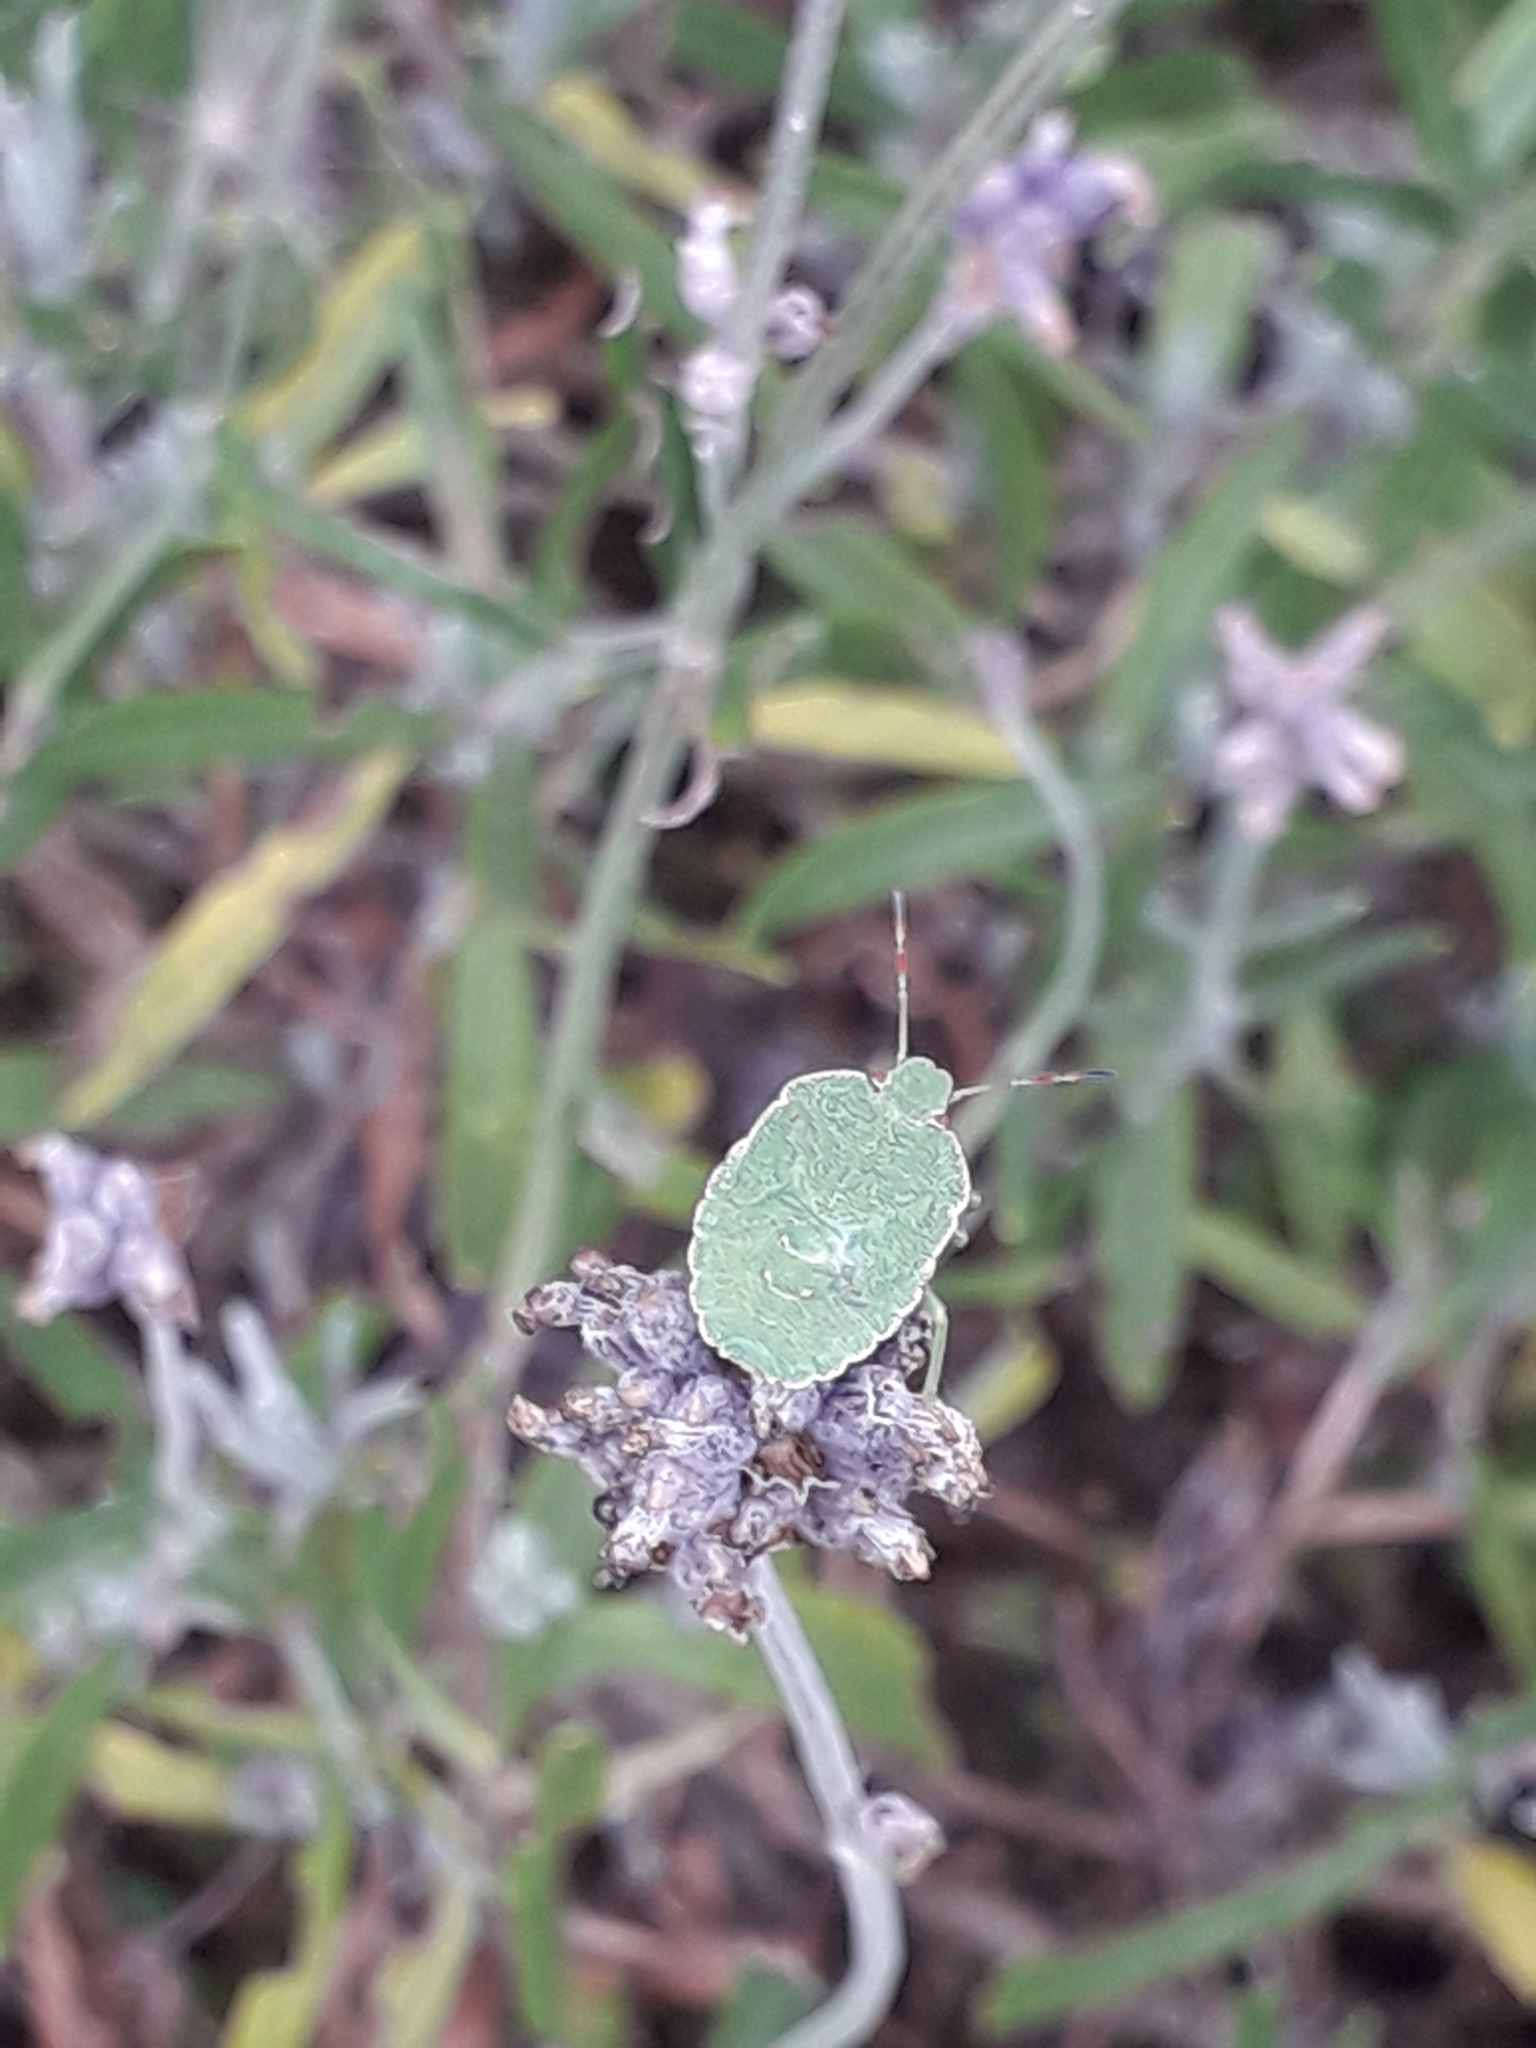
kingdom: Animalia
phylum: Arthropoda
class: Insecta
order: Hemiptera
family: Pentatomidae
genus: Palomena
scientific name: Palomena prasina
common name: Green shieldbug
